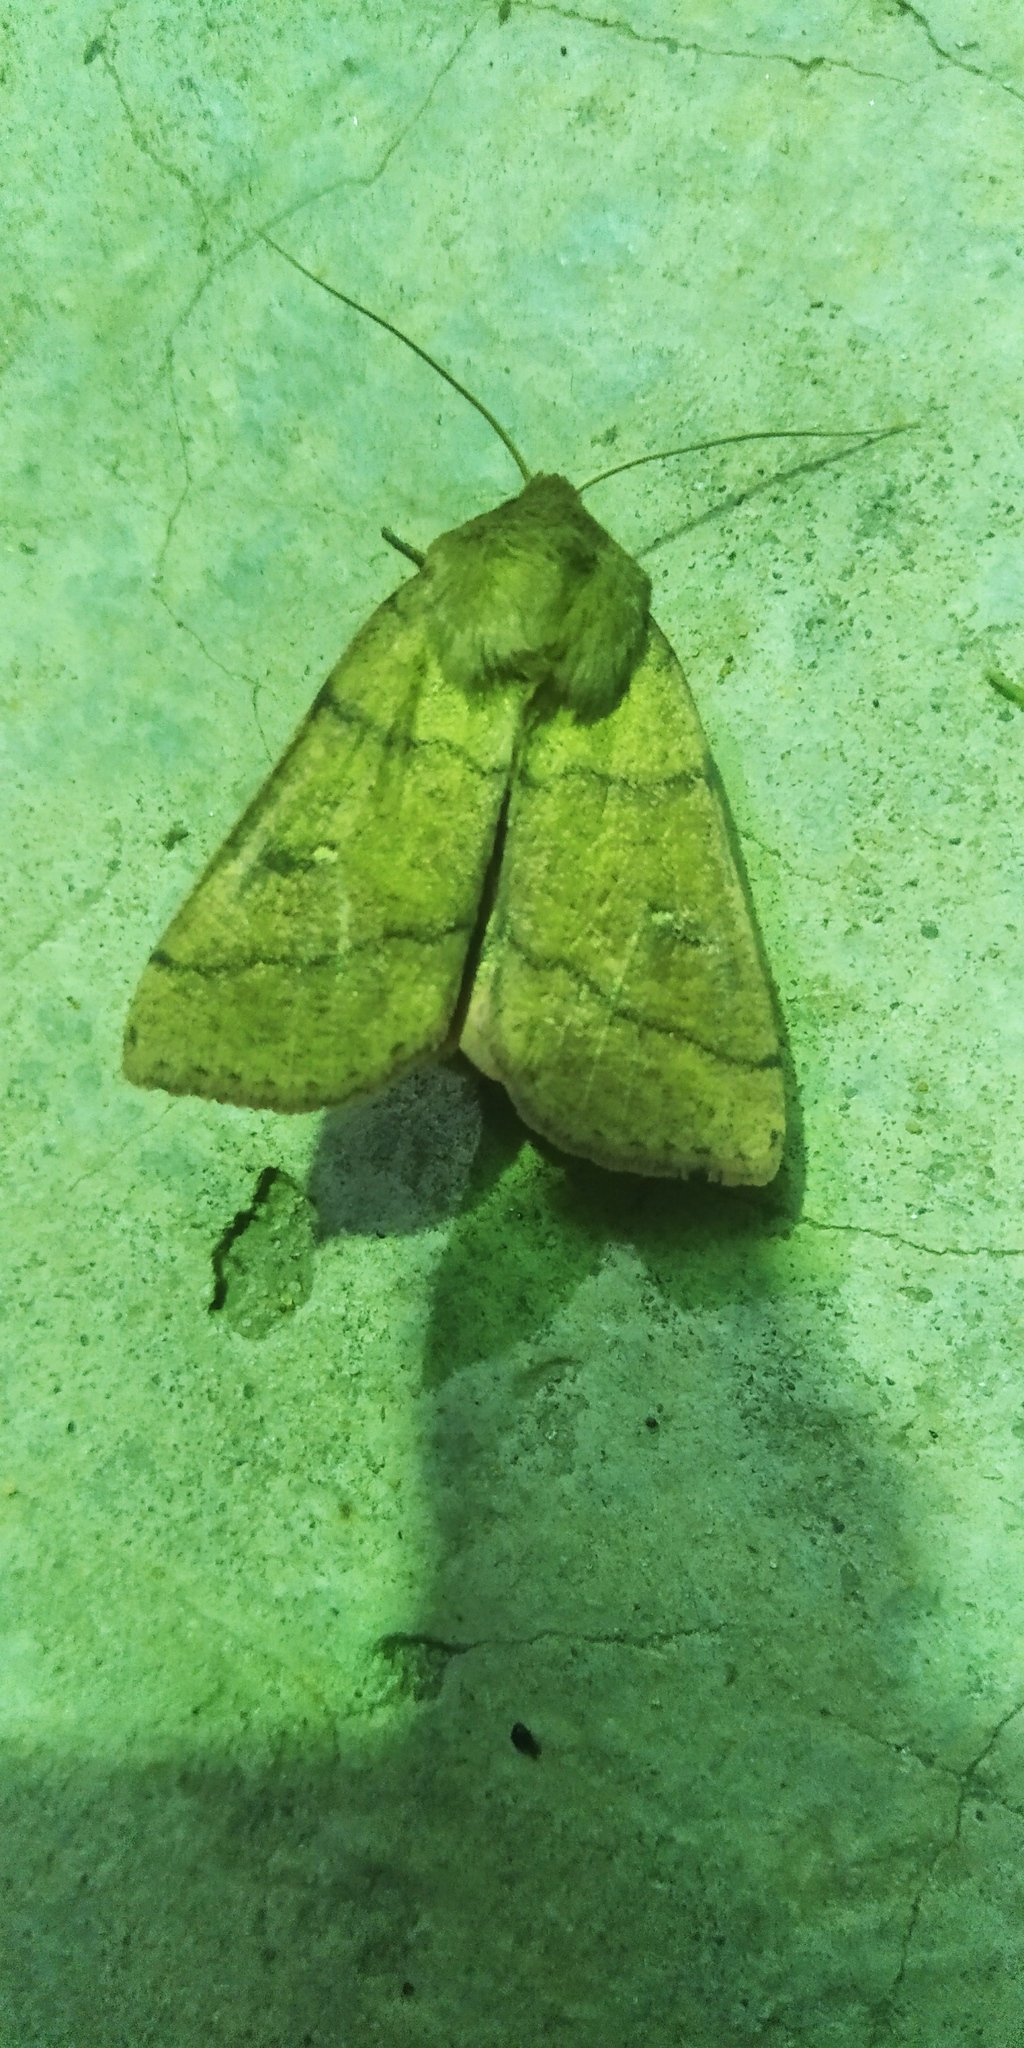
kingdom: Animalia
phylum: Arthropoda
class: Insecta
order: Lepidoptera
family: Noctuidae
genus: Mythimna
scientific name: Mythimna turca
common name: Double line
